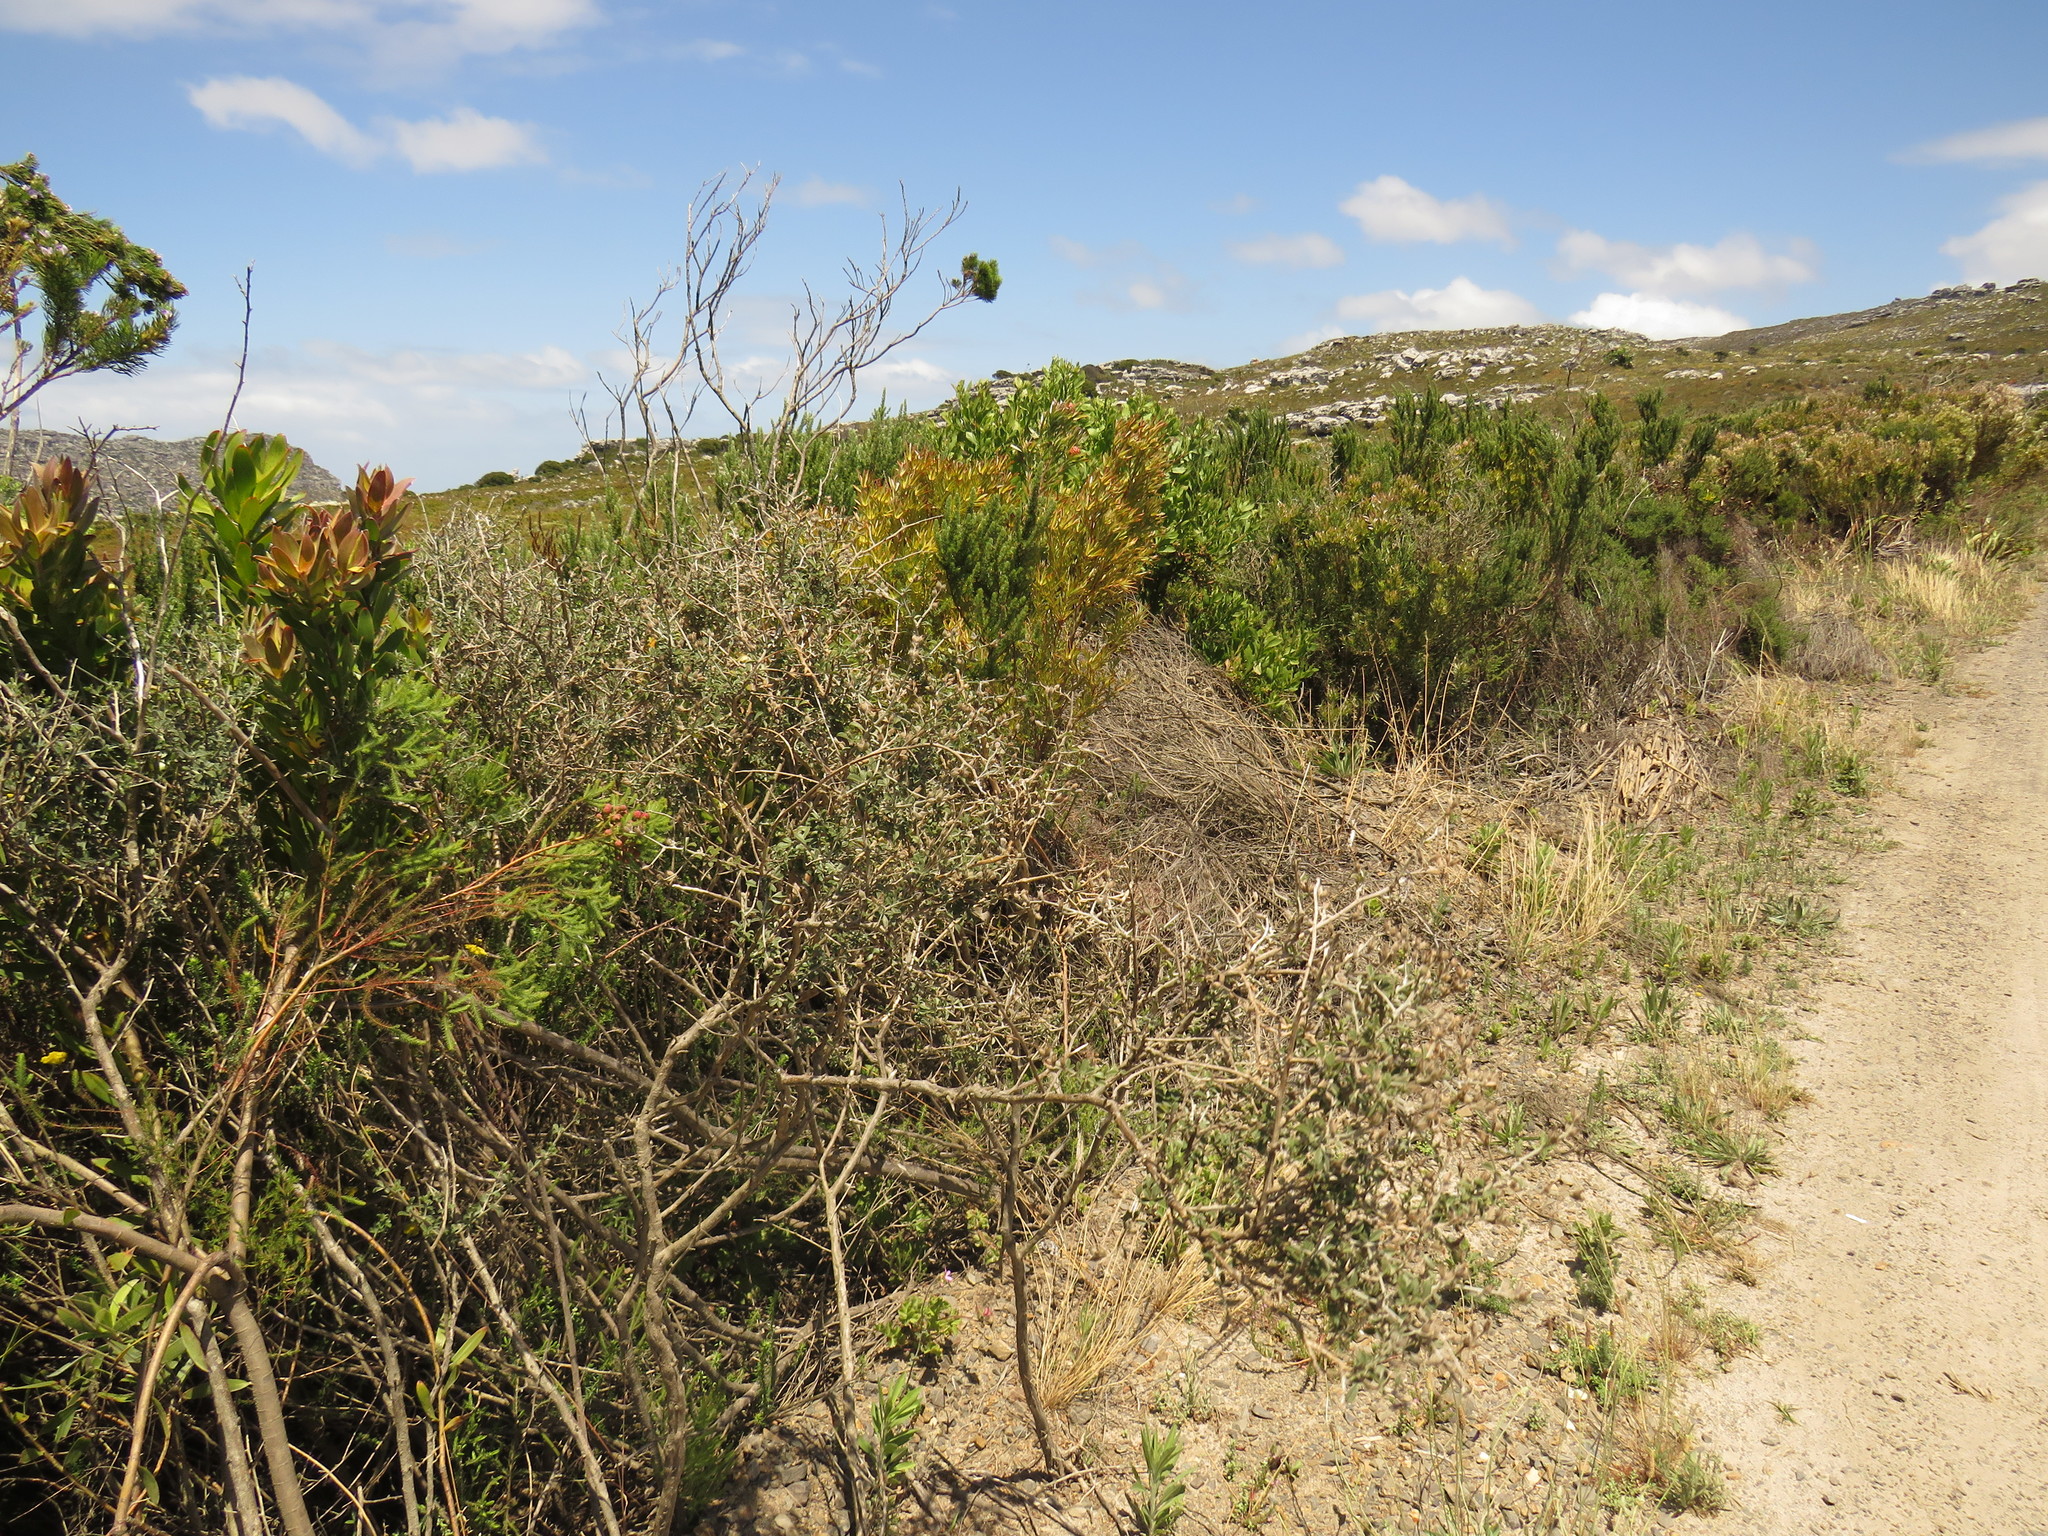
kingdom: Plantae
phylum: Tracheophyta
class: Magnoliopsida
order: Fabales
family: Fabaceae
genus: Psoralea
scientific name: Psoralea hirta
